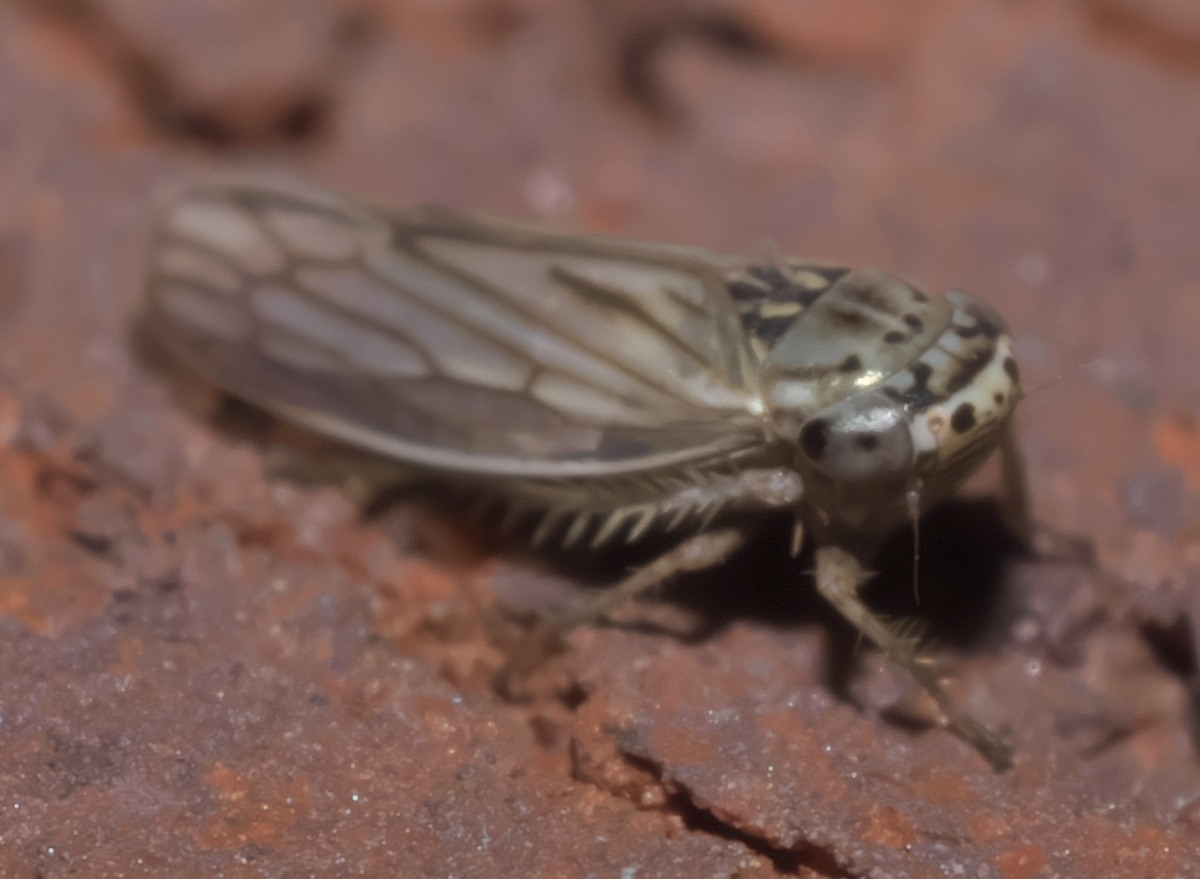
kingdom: Animalia
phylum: Arthropoda
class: Insecta
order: Hemiptera
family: Cicadellidae
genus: Exitianus
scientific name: Exitianus exitiosus
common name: Gray lawn leafhopper
